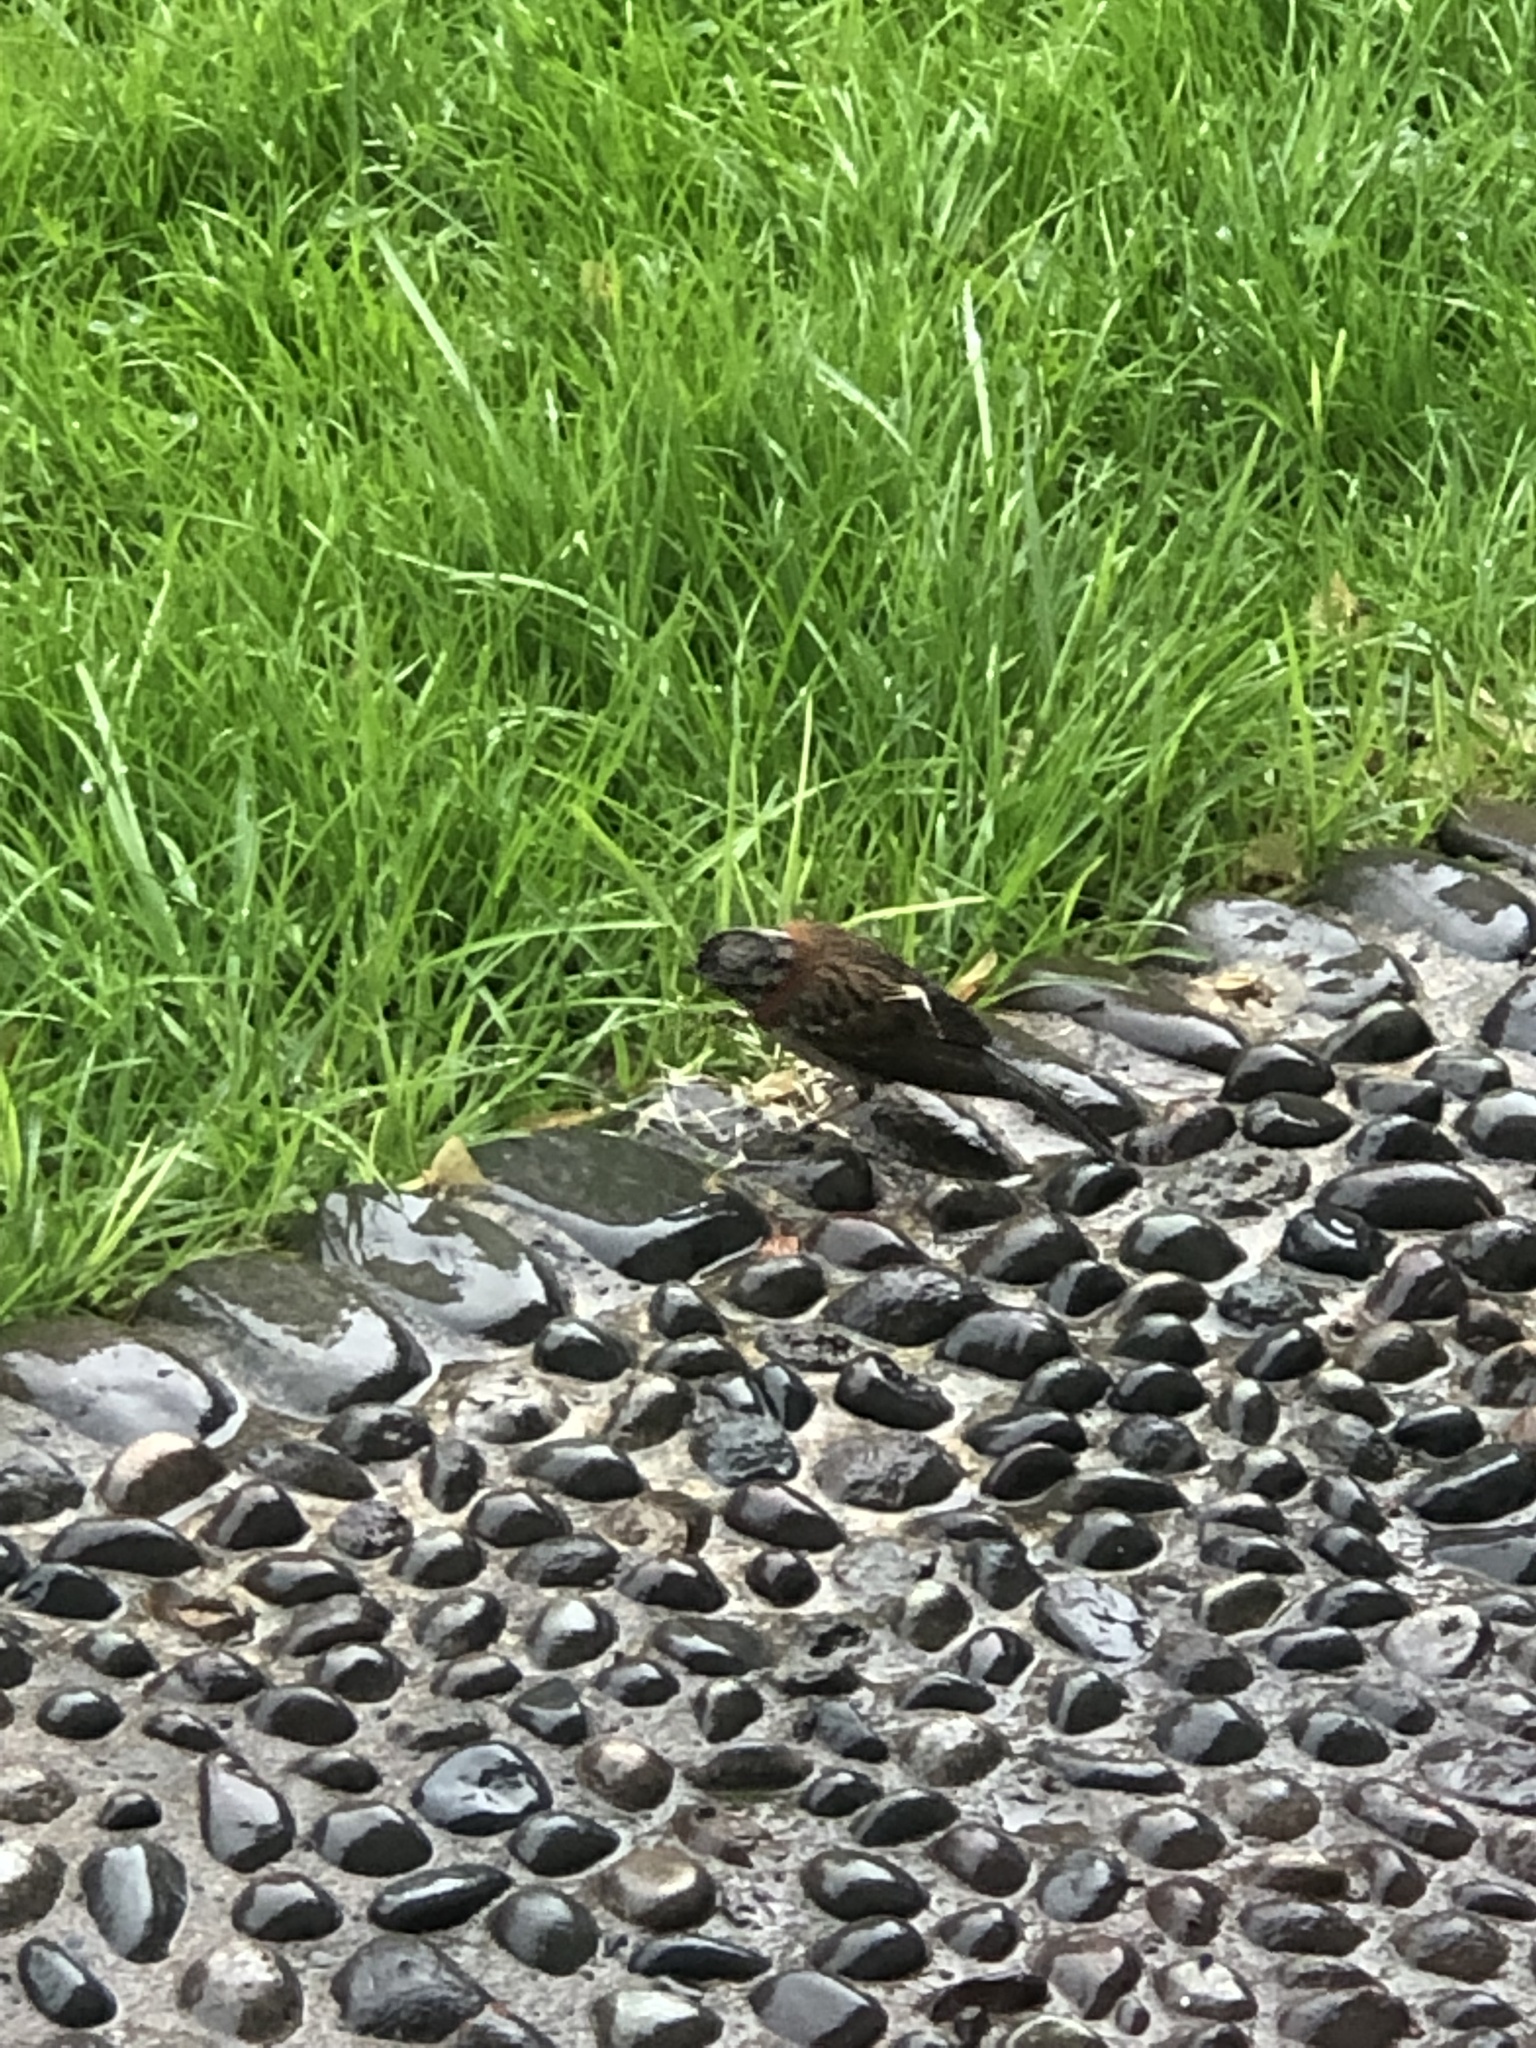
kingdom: Animalia
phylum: Chordata
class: Aves
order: Passeriformes
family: Passerellidae
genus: Zonotrichia
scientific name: Zonotrichia capensis
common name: Rufous-collared sparrow
